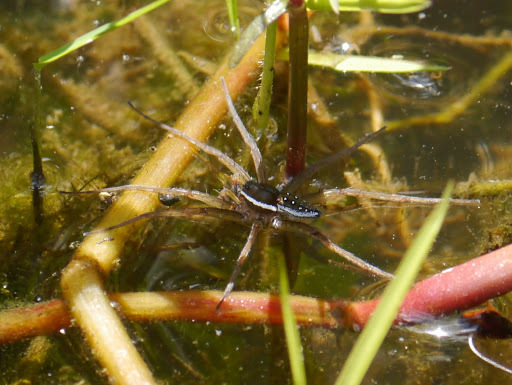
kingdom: Animalia
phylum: Arthropoda
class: Arachnida
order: Araneae
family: Pisauridae
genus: Dolomedes
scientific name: Dolomedes triton
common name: Six-spotted fishing spider
